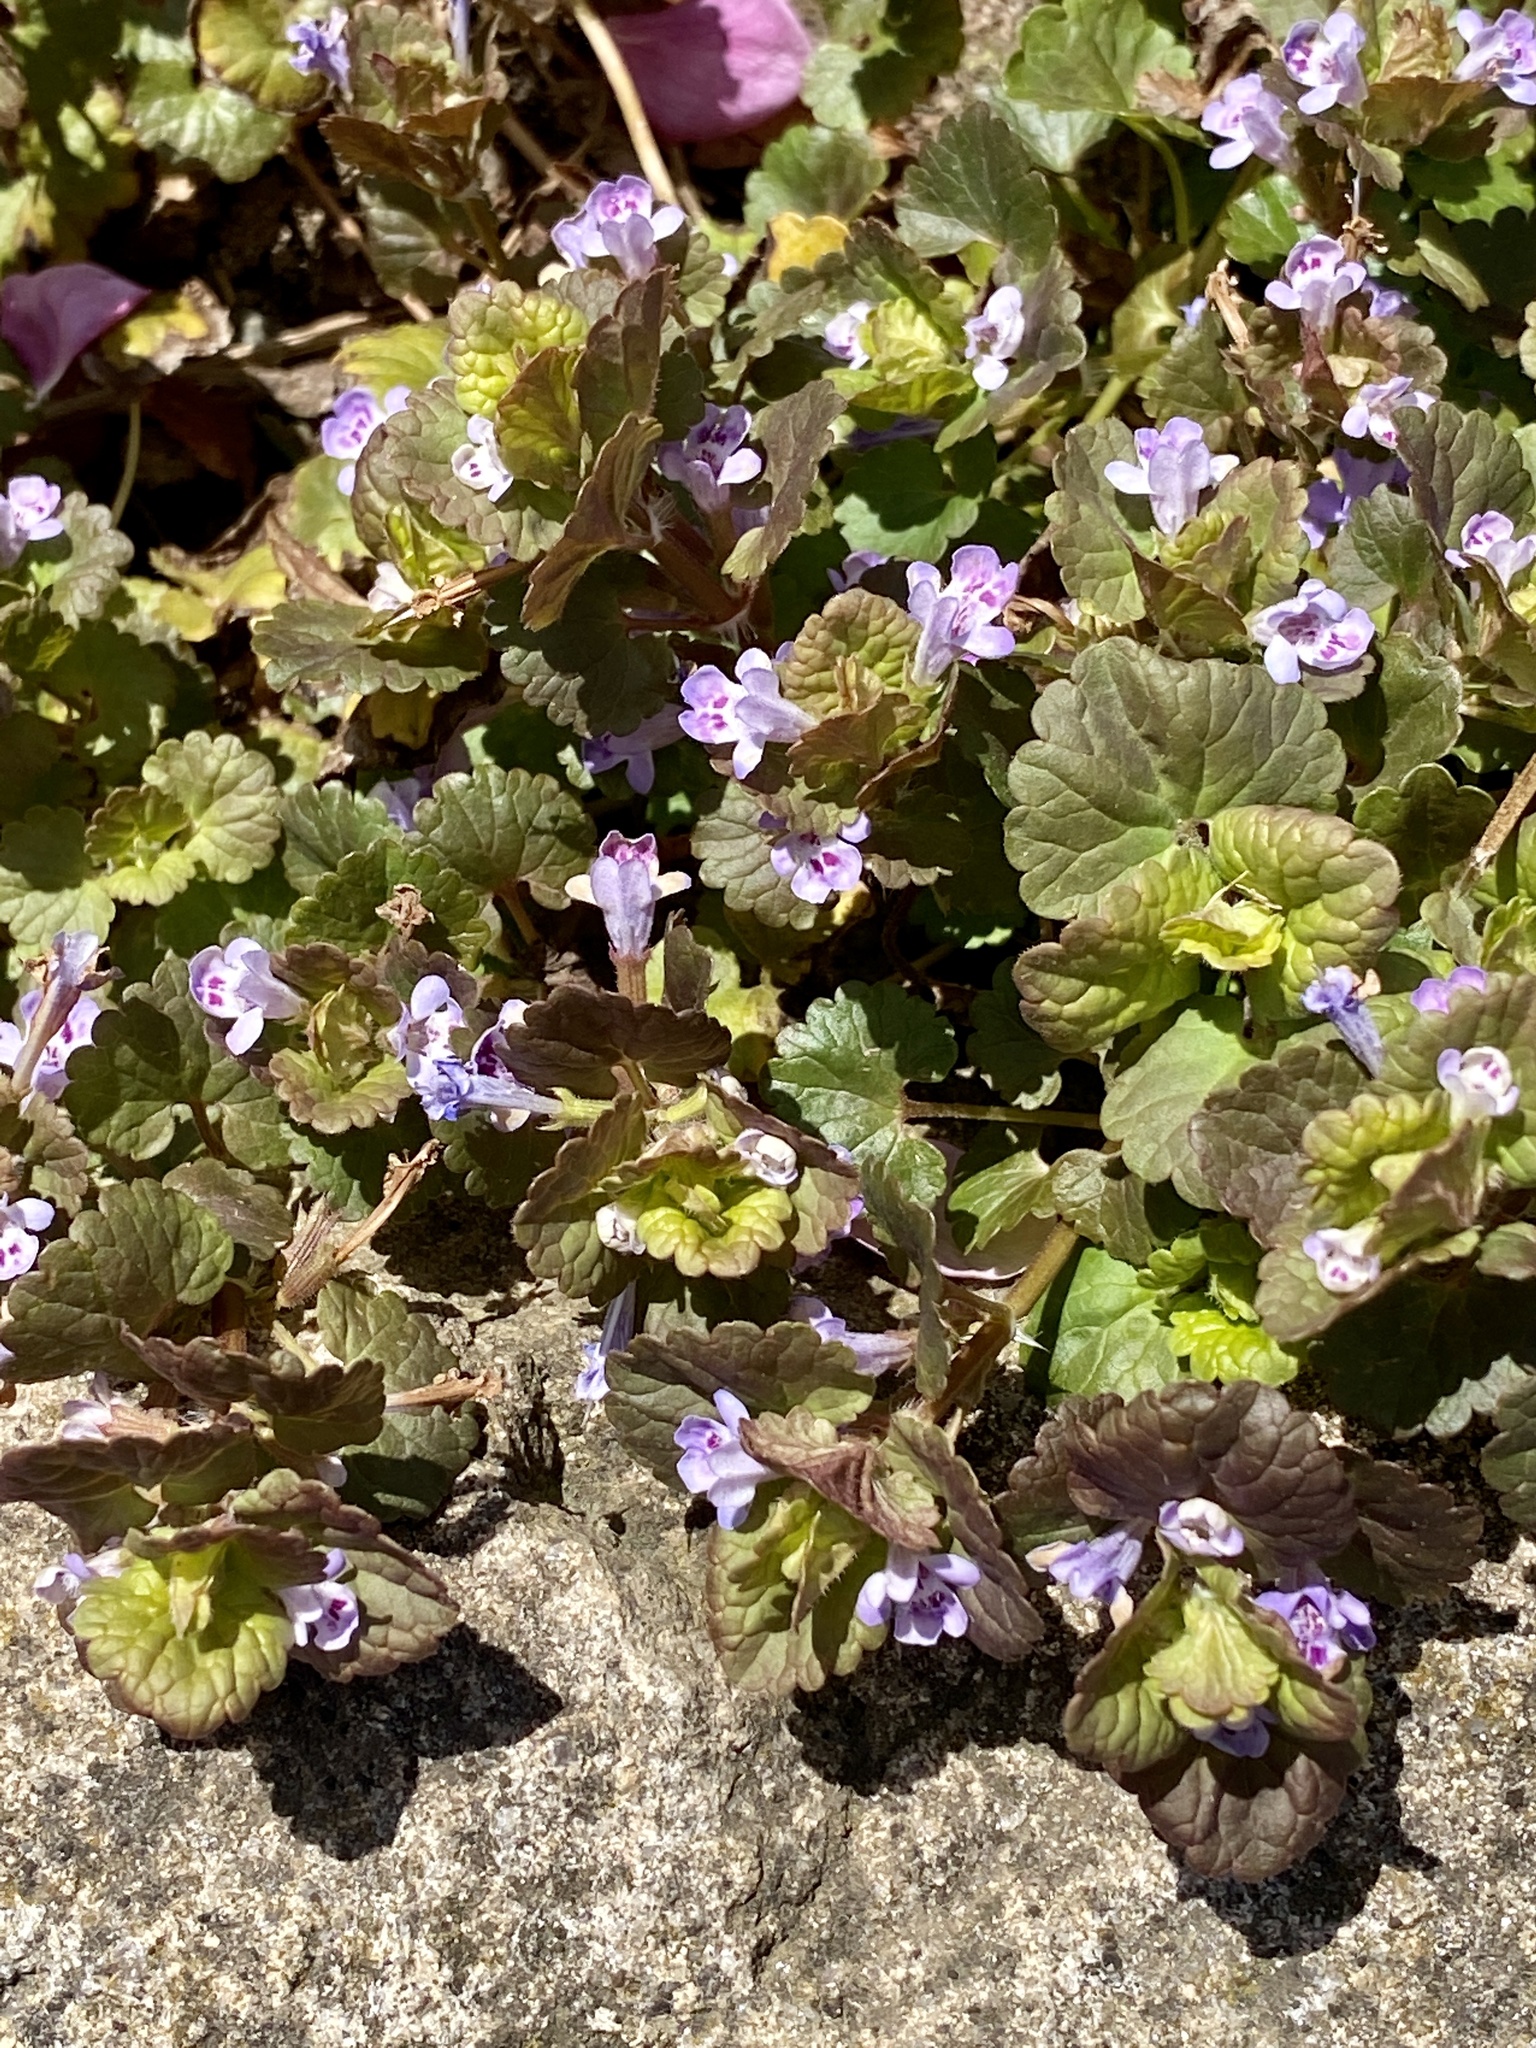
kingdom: Plantae
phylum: Tracheophyta
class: Magnoliopsida
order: Lamiales
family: Lamiaceae
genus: Glechoma
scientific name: Glechoma hederacea
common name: Ground ivy
